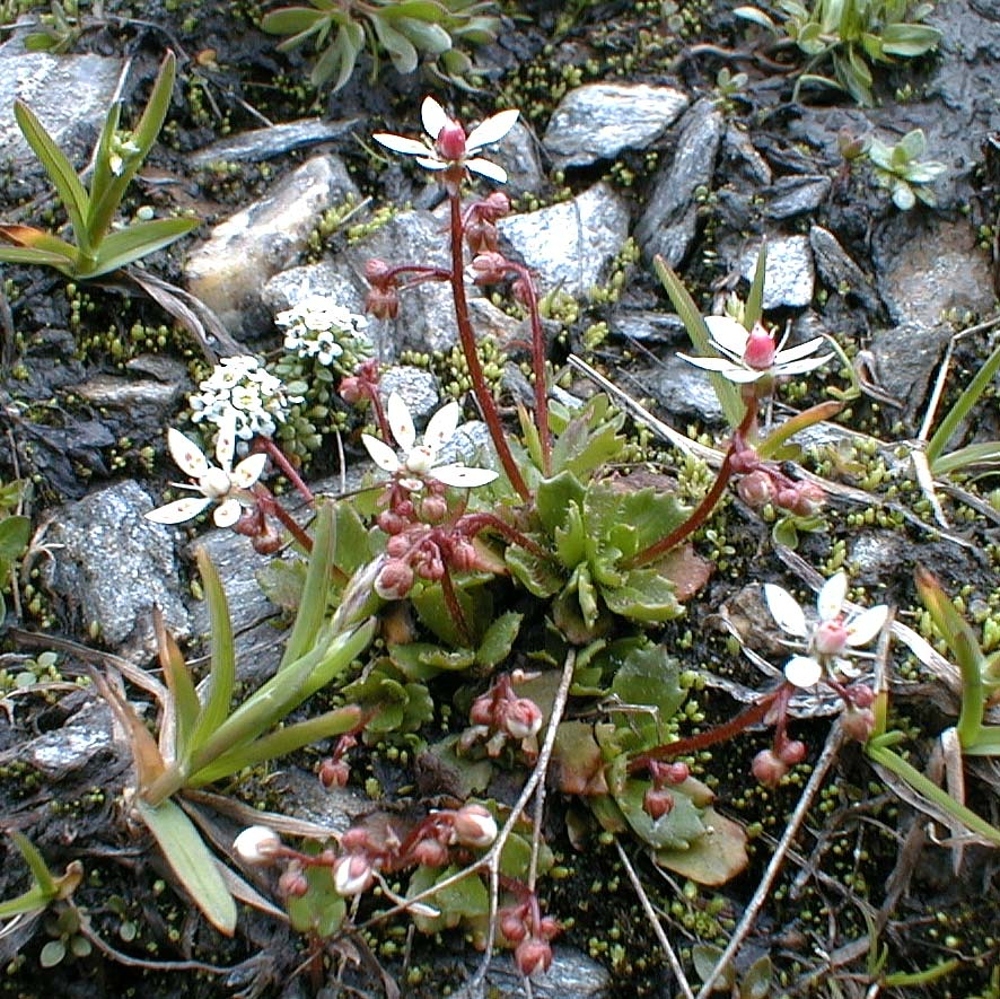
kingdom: Plantae
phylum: Tracheophyta
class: Magnoliopsida
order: Saxifragales
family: Saxifragaceae
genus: Micranthes
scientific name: Micranthes stellaris
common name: Starry saxifrage
